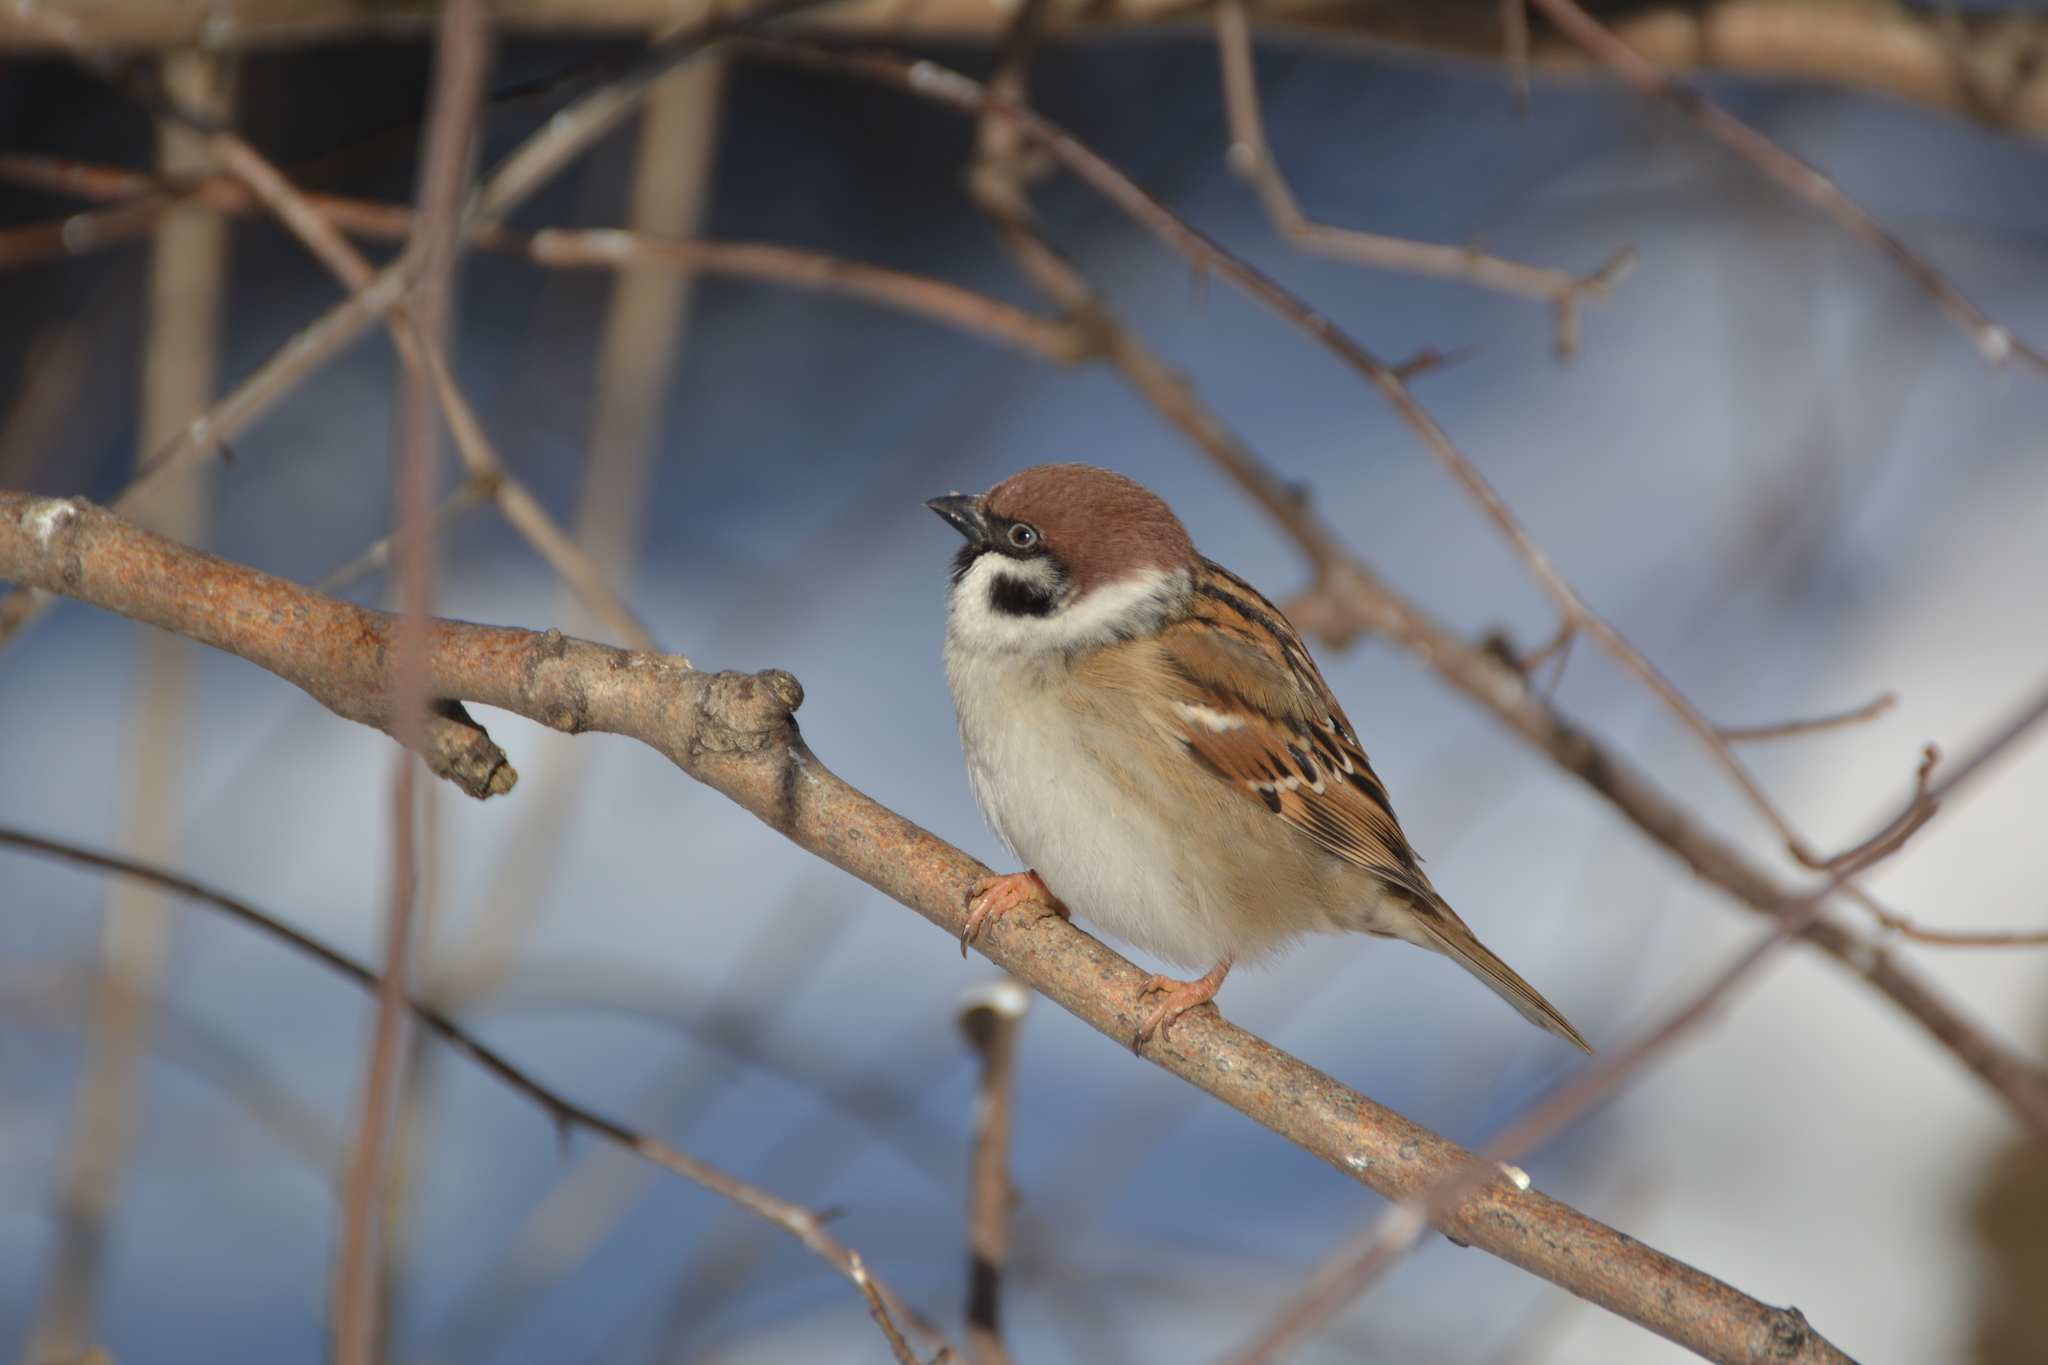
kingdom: Animalia
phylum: Chordata
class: Aves
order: Passeriformes
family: Passeridae
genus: Passer
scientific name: Passer montanus
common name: Eurasian tree sparrow
